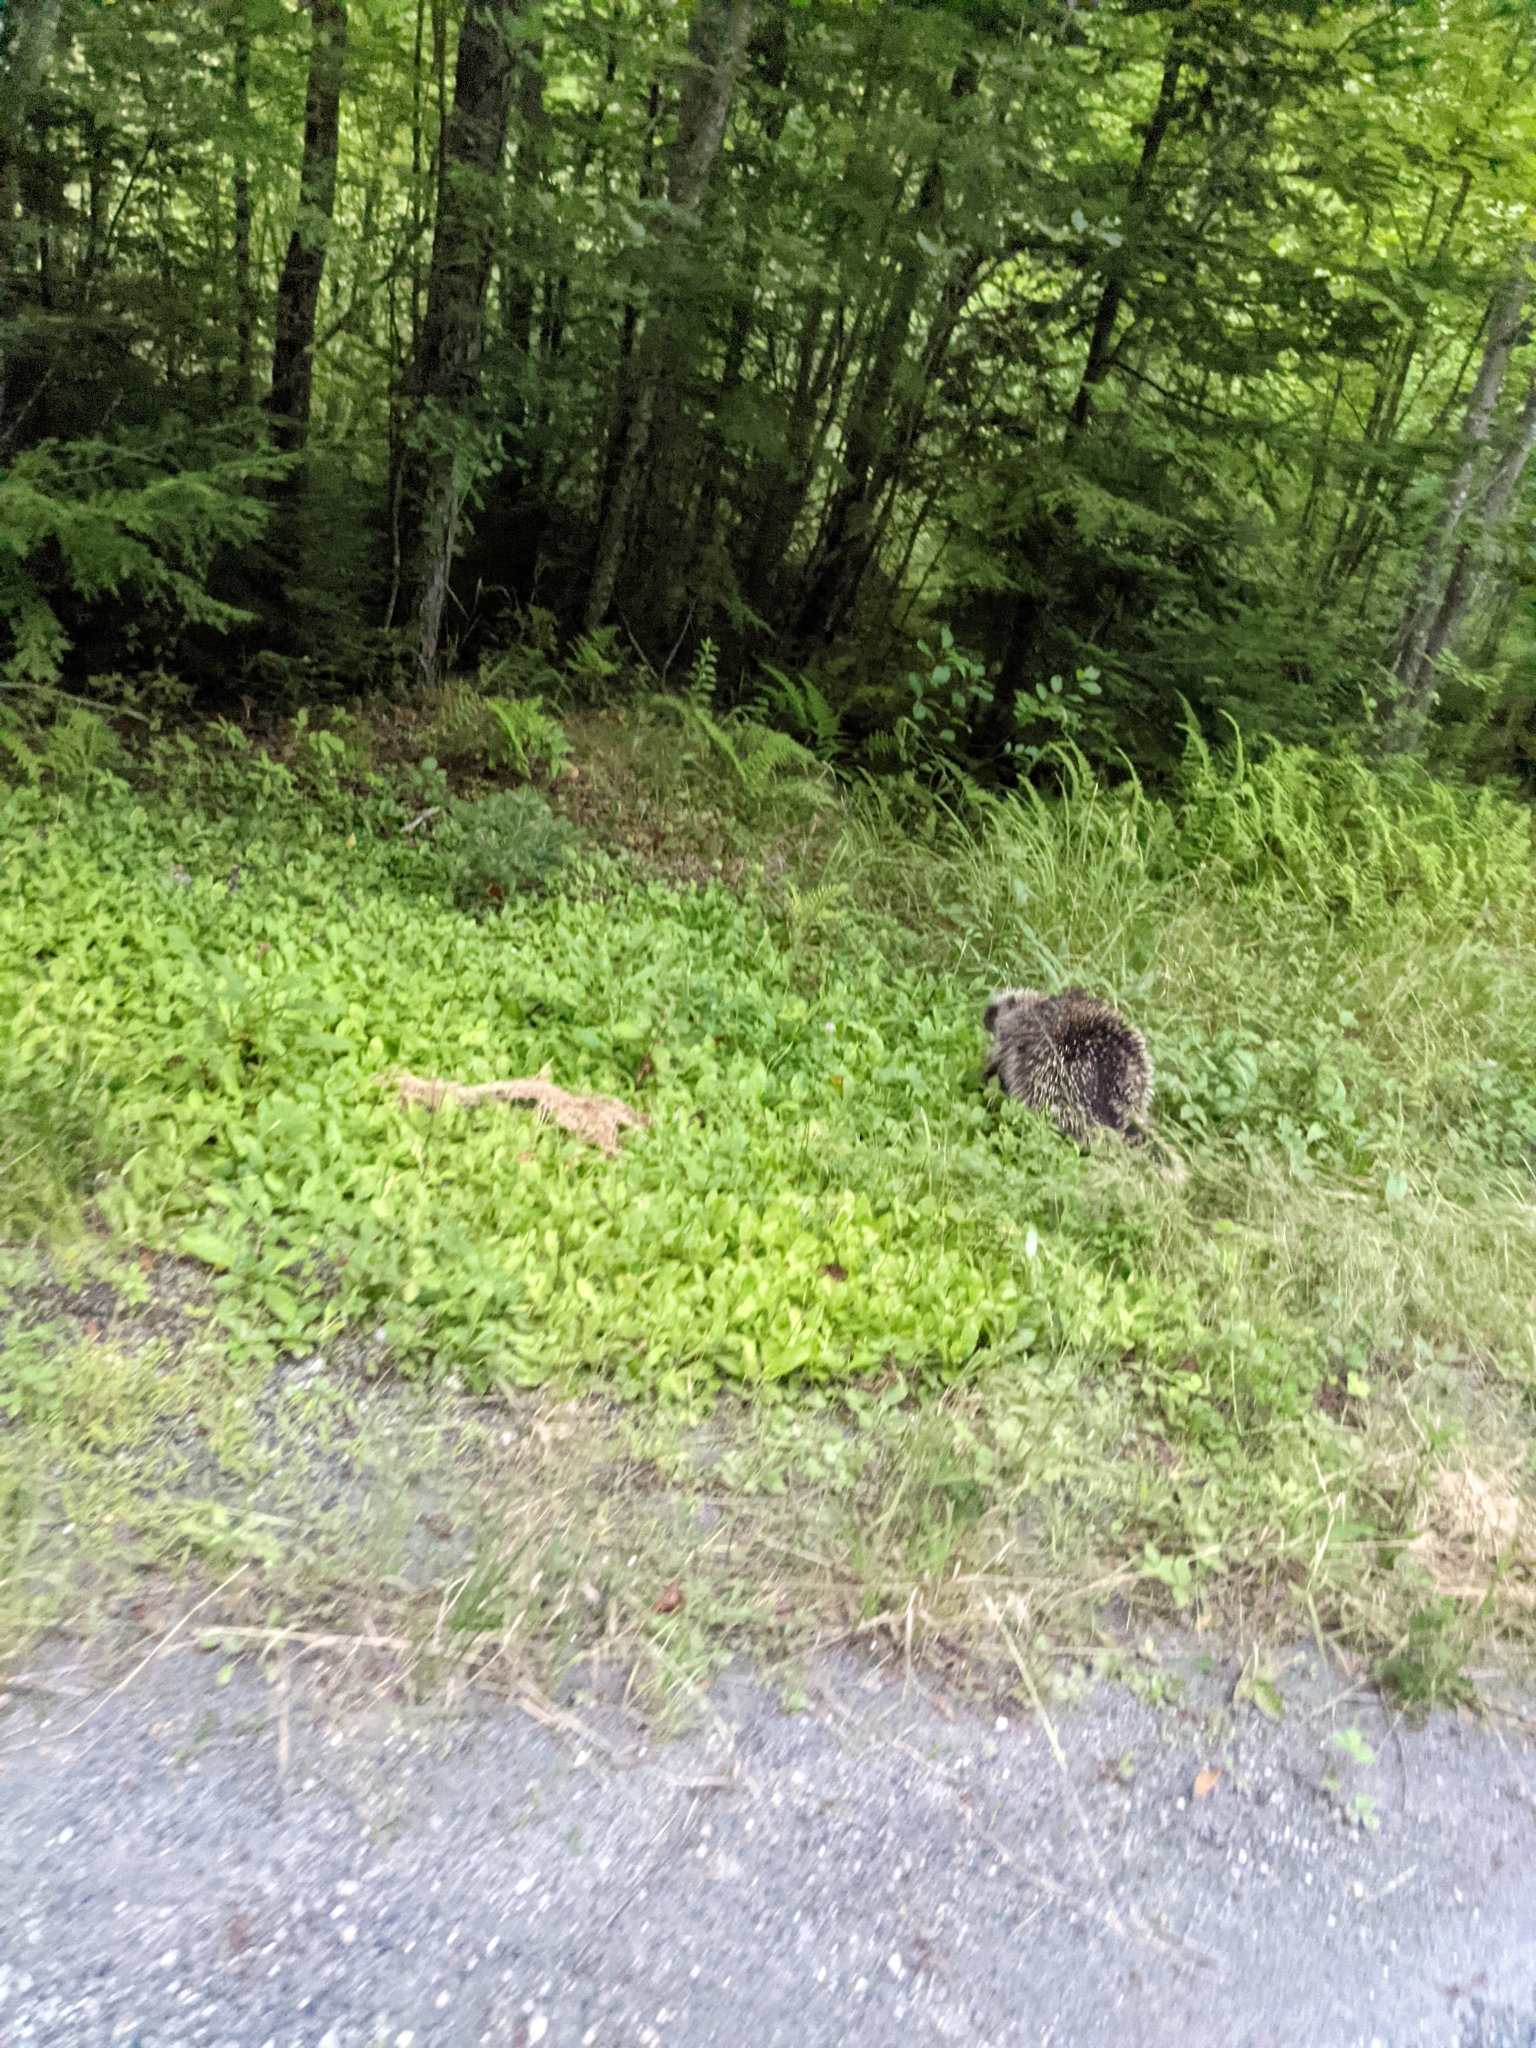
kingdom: Animalia
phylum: Chordata
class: Mammalia
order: Rodentia
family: Erethizontidae
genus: Erethizon
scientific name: Erethizon dorsatus
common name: North american porcupine
